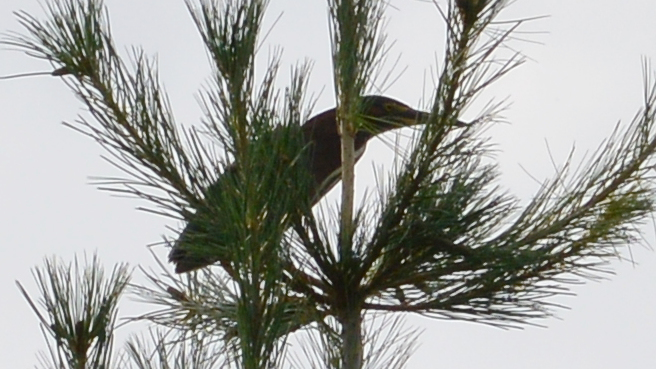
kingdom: Animalia
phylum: Chordata
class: Aves
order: Pelecaniformes
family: Ardeidae
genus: Butorides
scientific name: Butorides virescens
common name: Green heron
